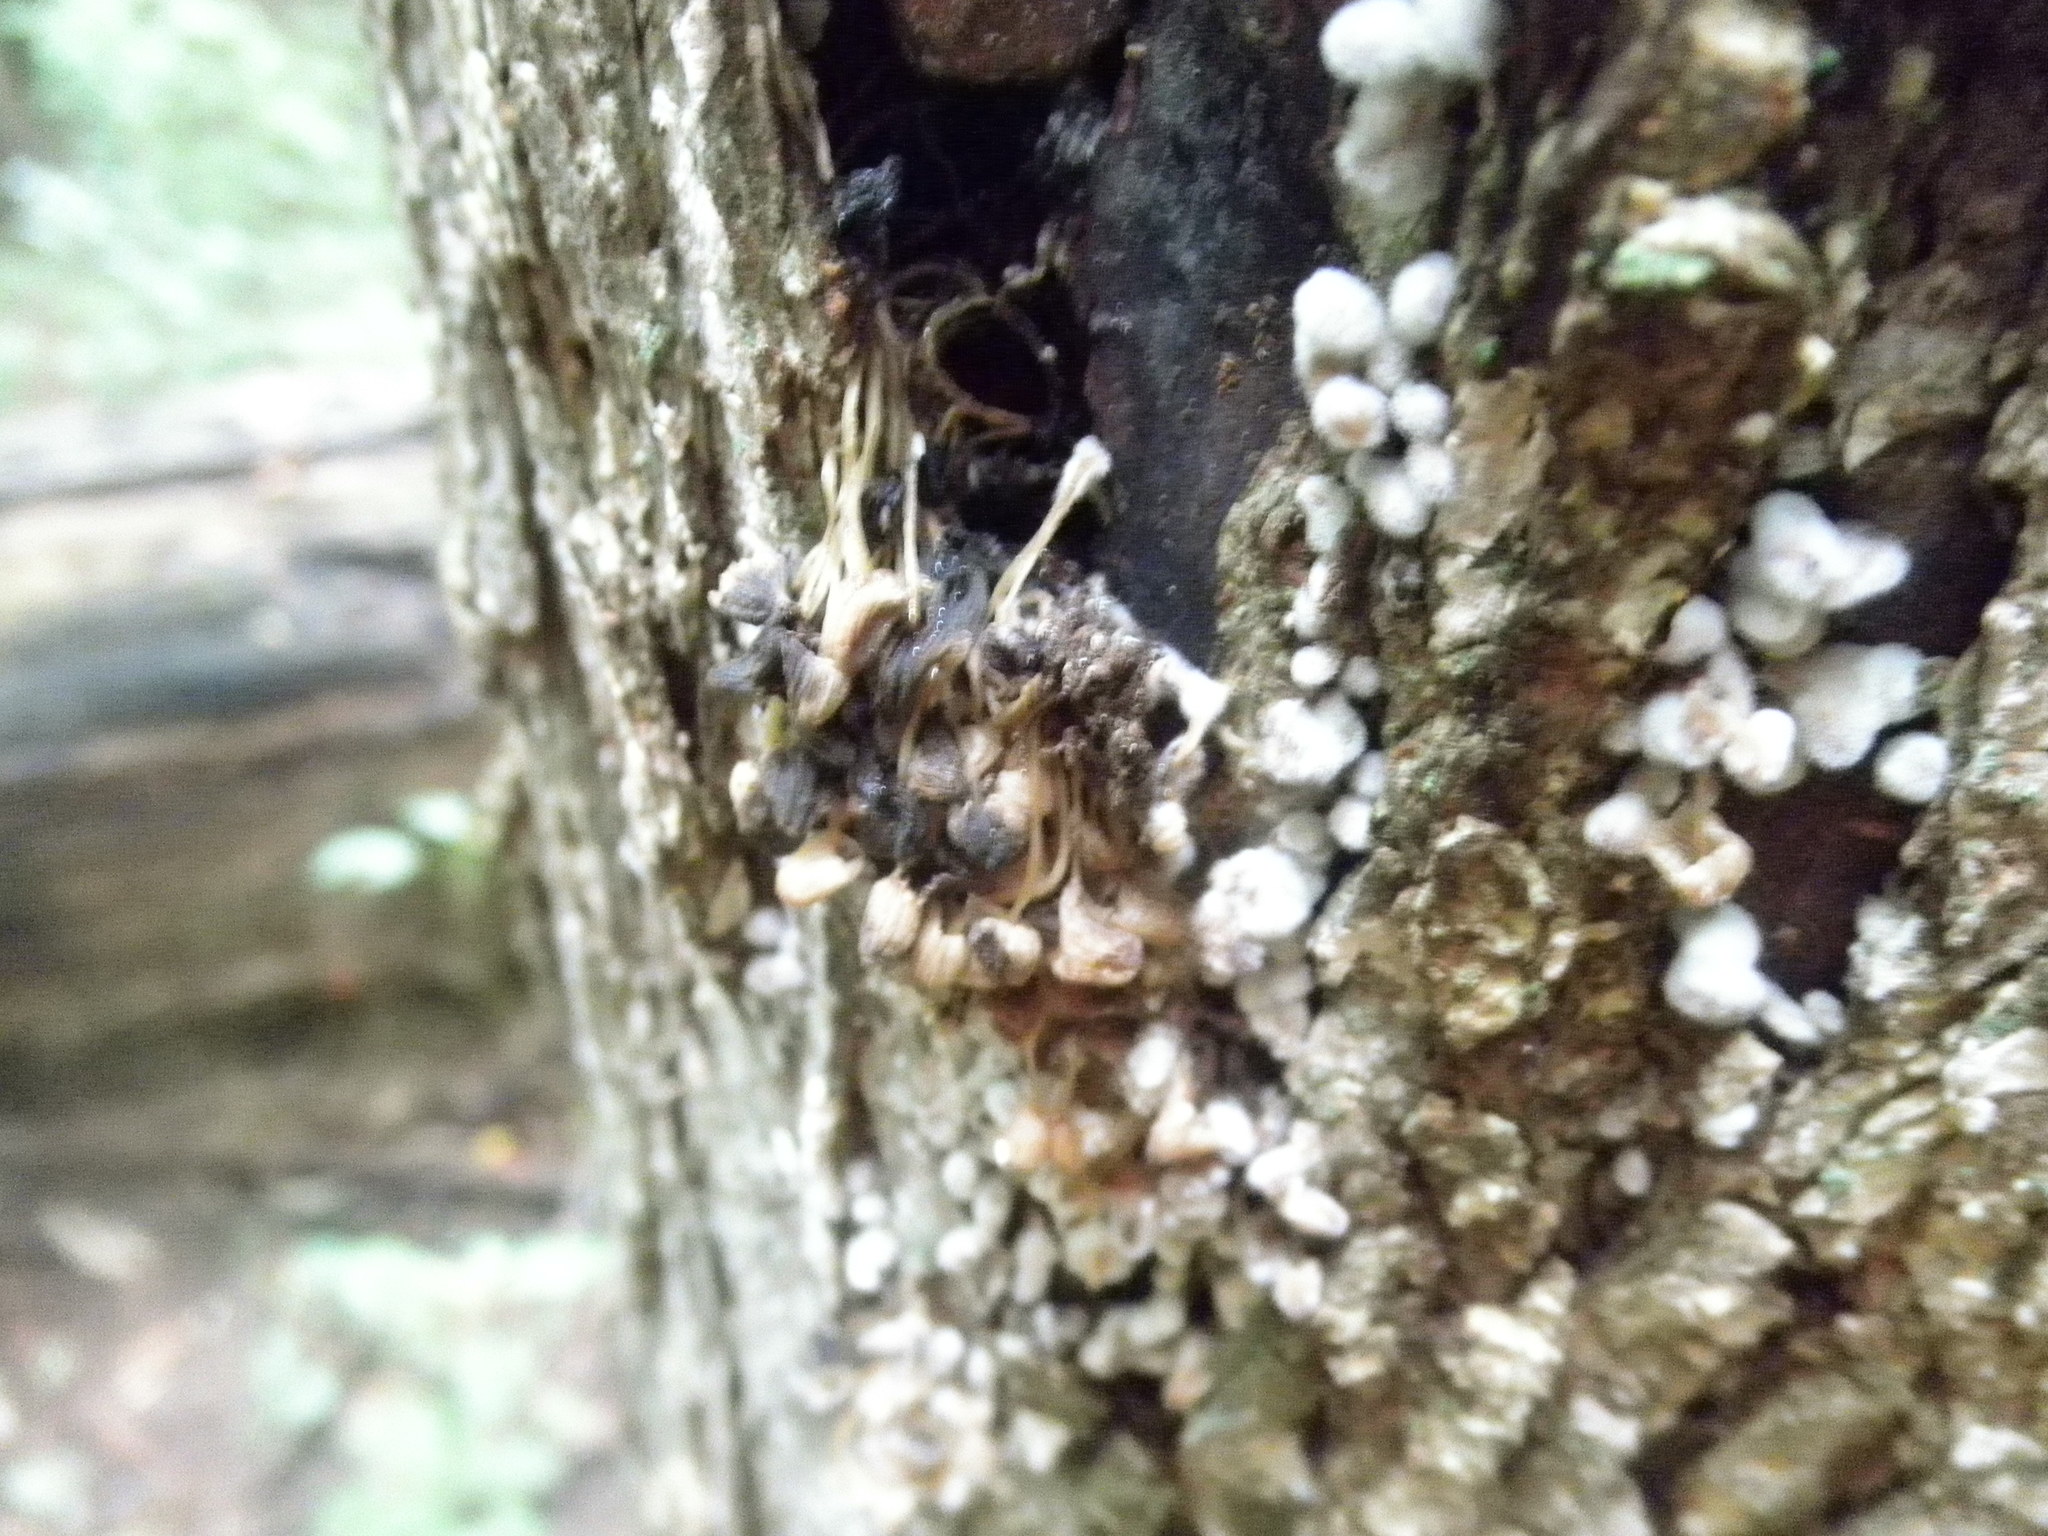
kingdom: Fungi
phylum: Basidiomycota
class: Agaricomycetes
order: Agaricales
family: Psathyrellaceae
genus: Coprinellus
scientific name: Coprinellus disseminatus
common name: Fairies' bonnets
